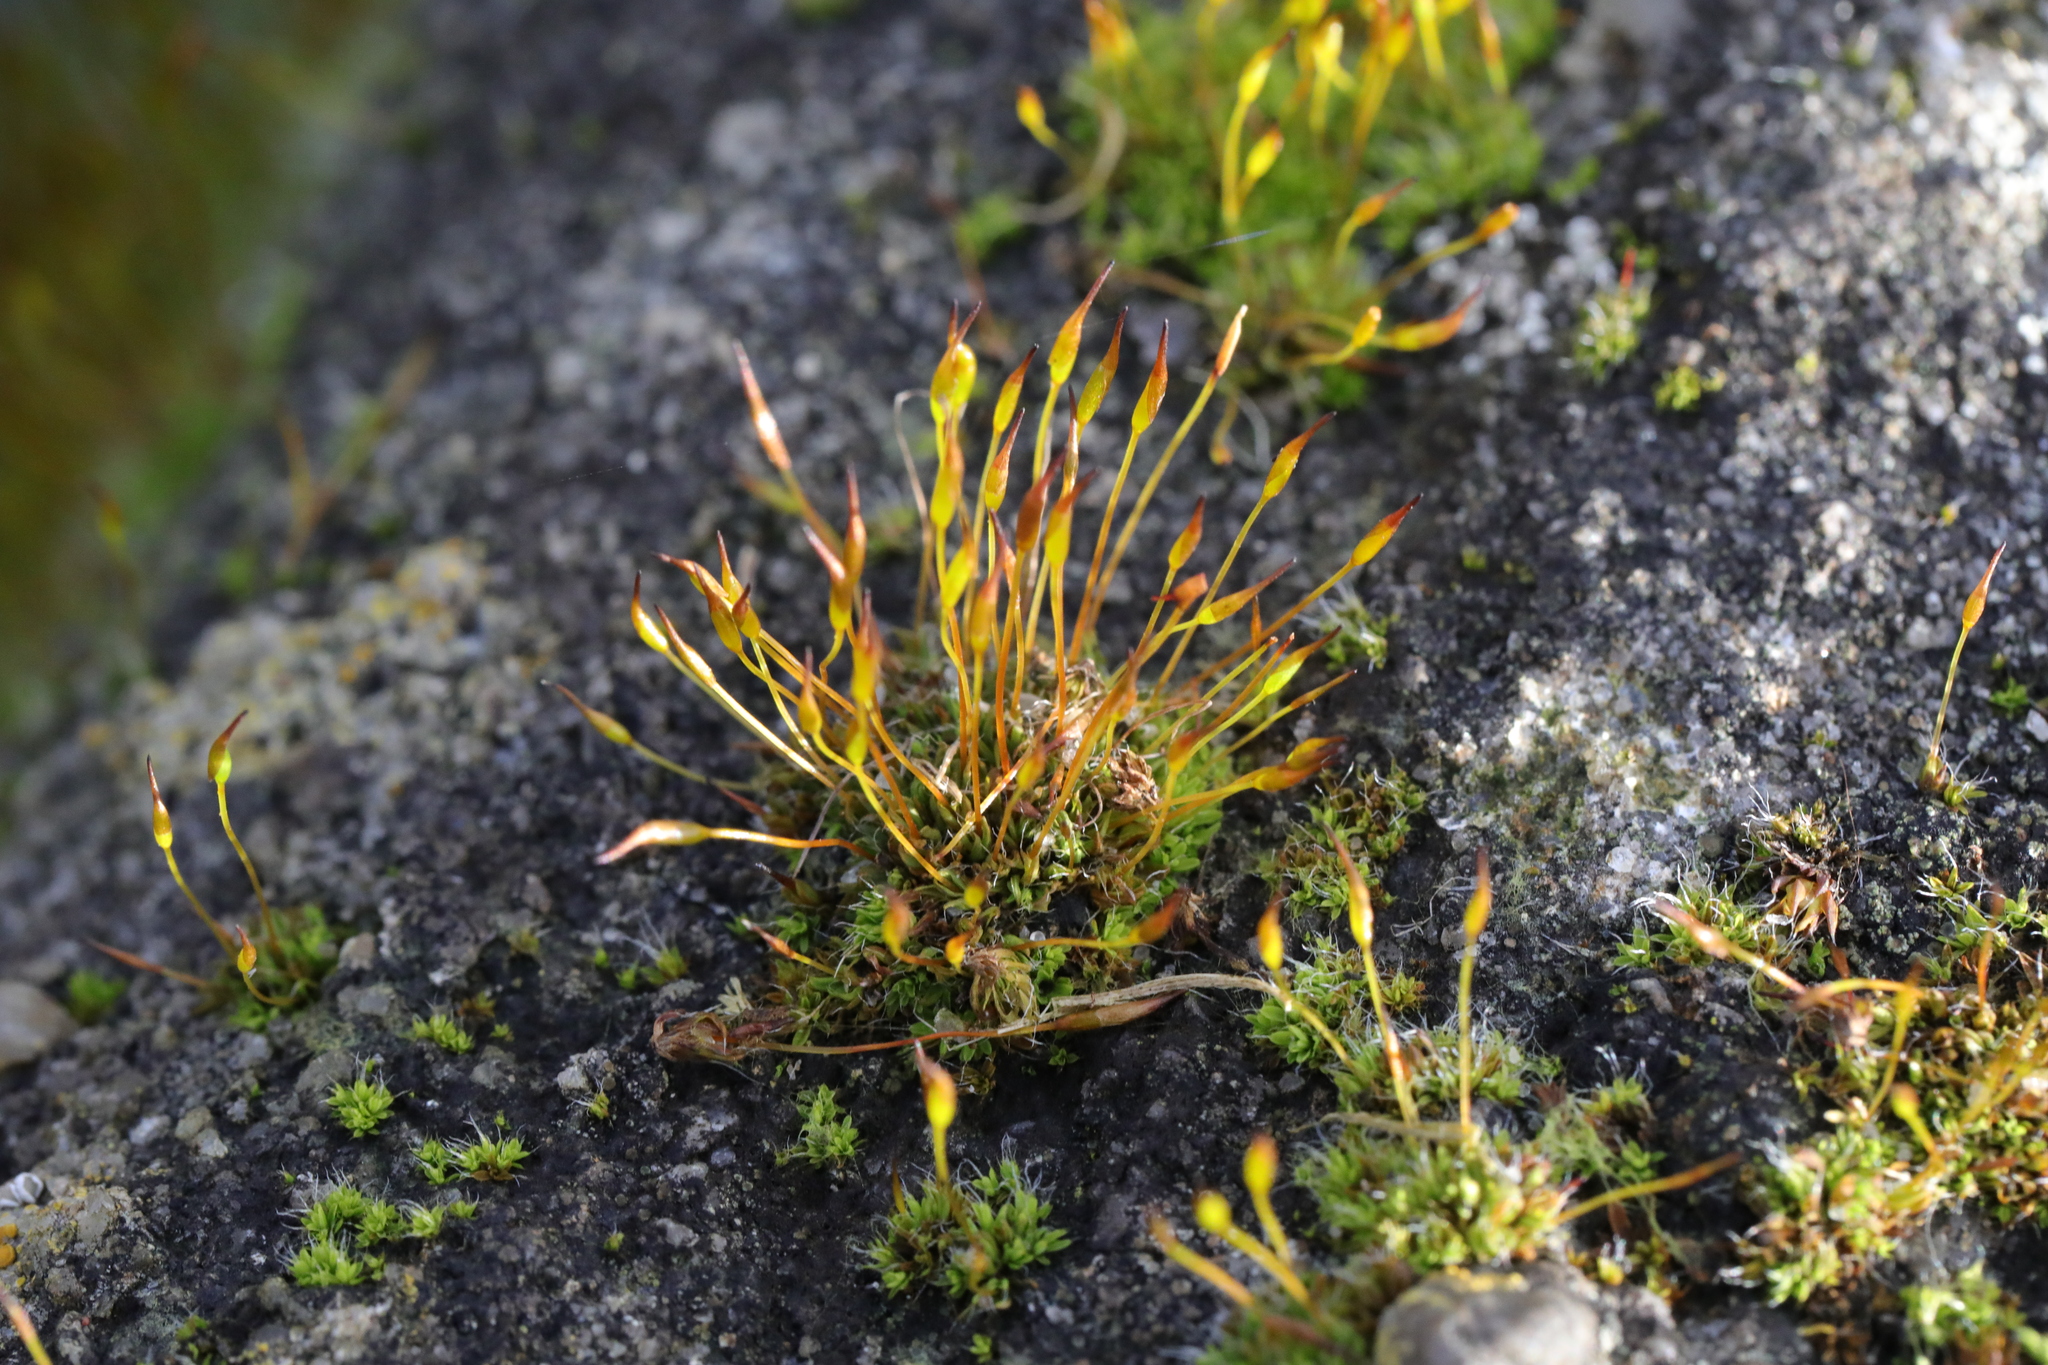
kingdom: Plantae
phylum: Bryophyta
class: Bryopsida
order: Pottiales
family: Pottiaceae
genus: Tortula
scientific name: Tortula muralis
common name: Wall screw-moss
